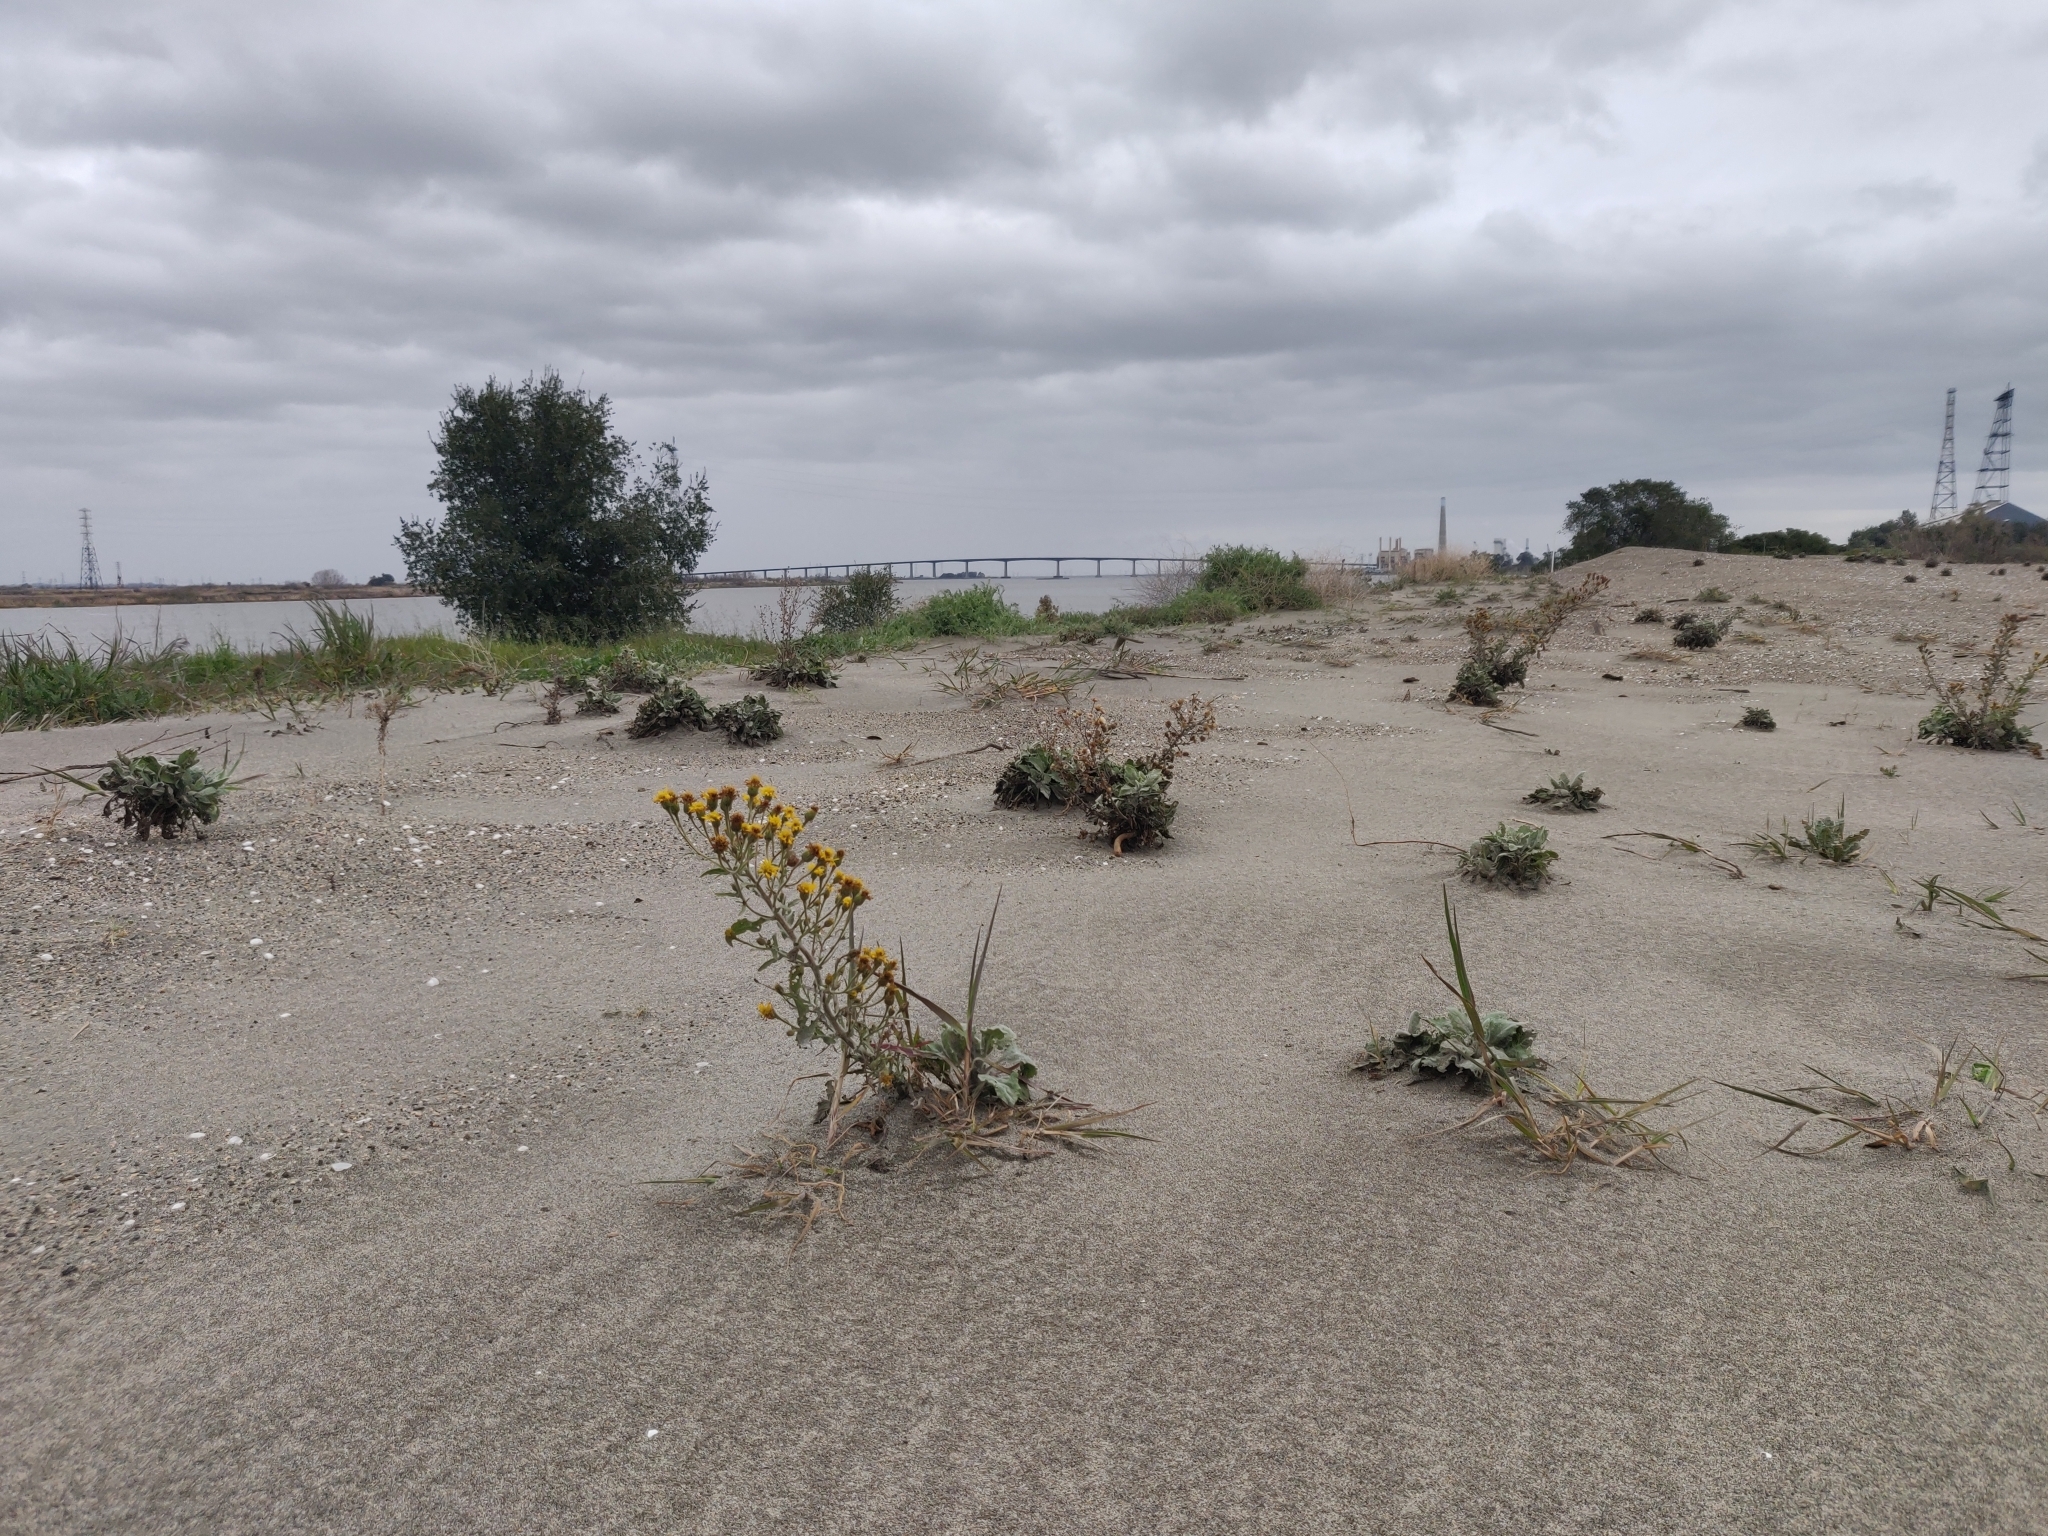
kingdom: Plantae
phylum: Tracheophyta
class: Magnoliopsida
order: Asterales
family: Asteraceae
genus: Heterotheca
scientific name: Heterotheca grandiflora
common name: Telegraphweed
